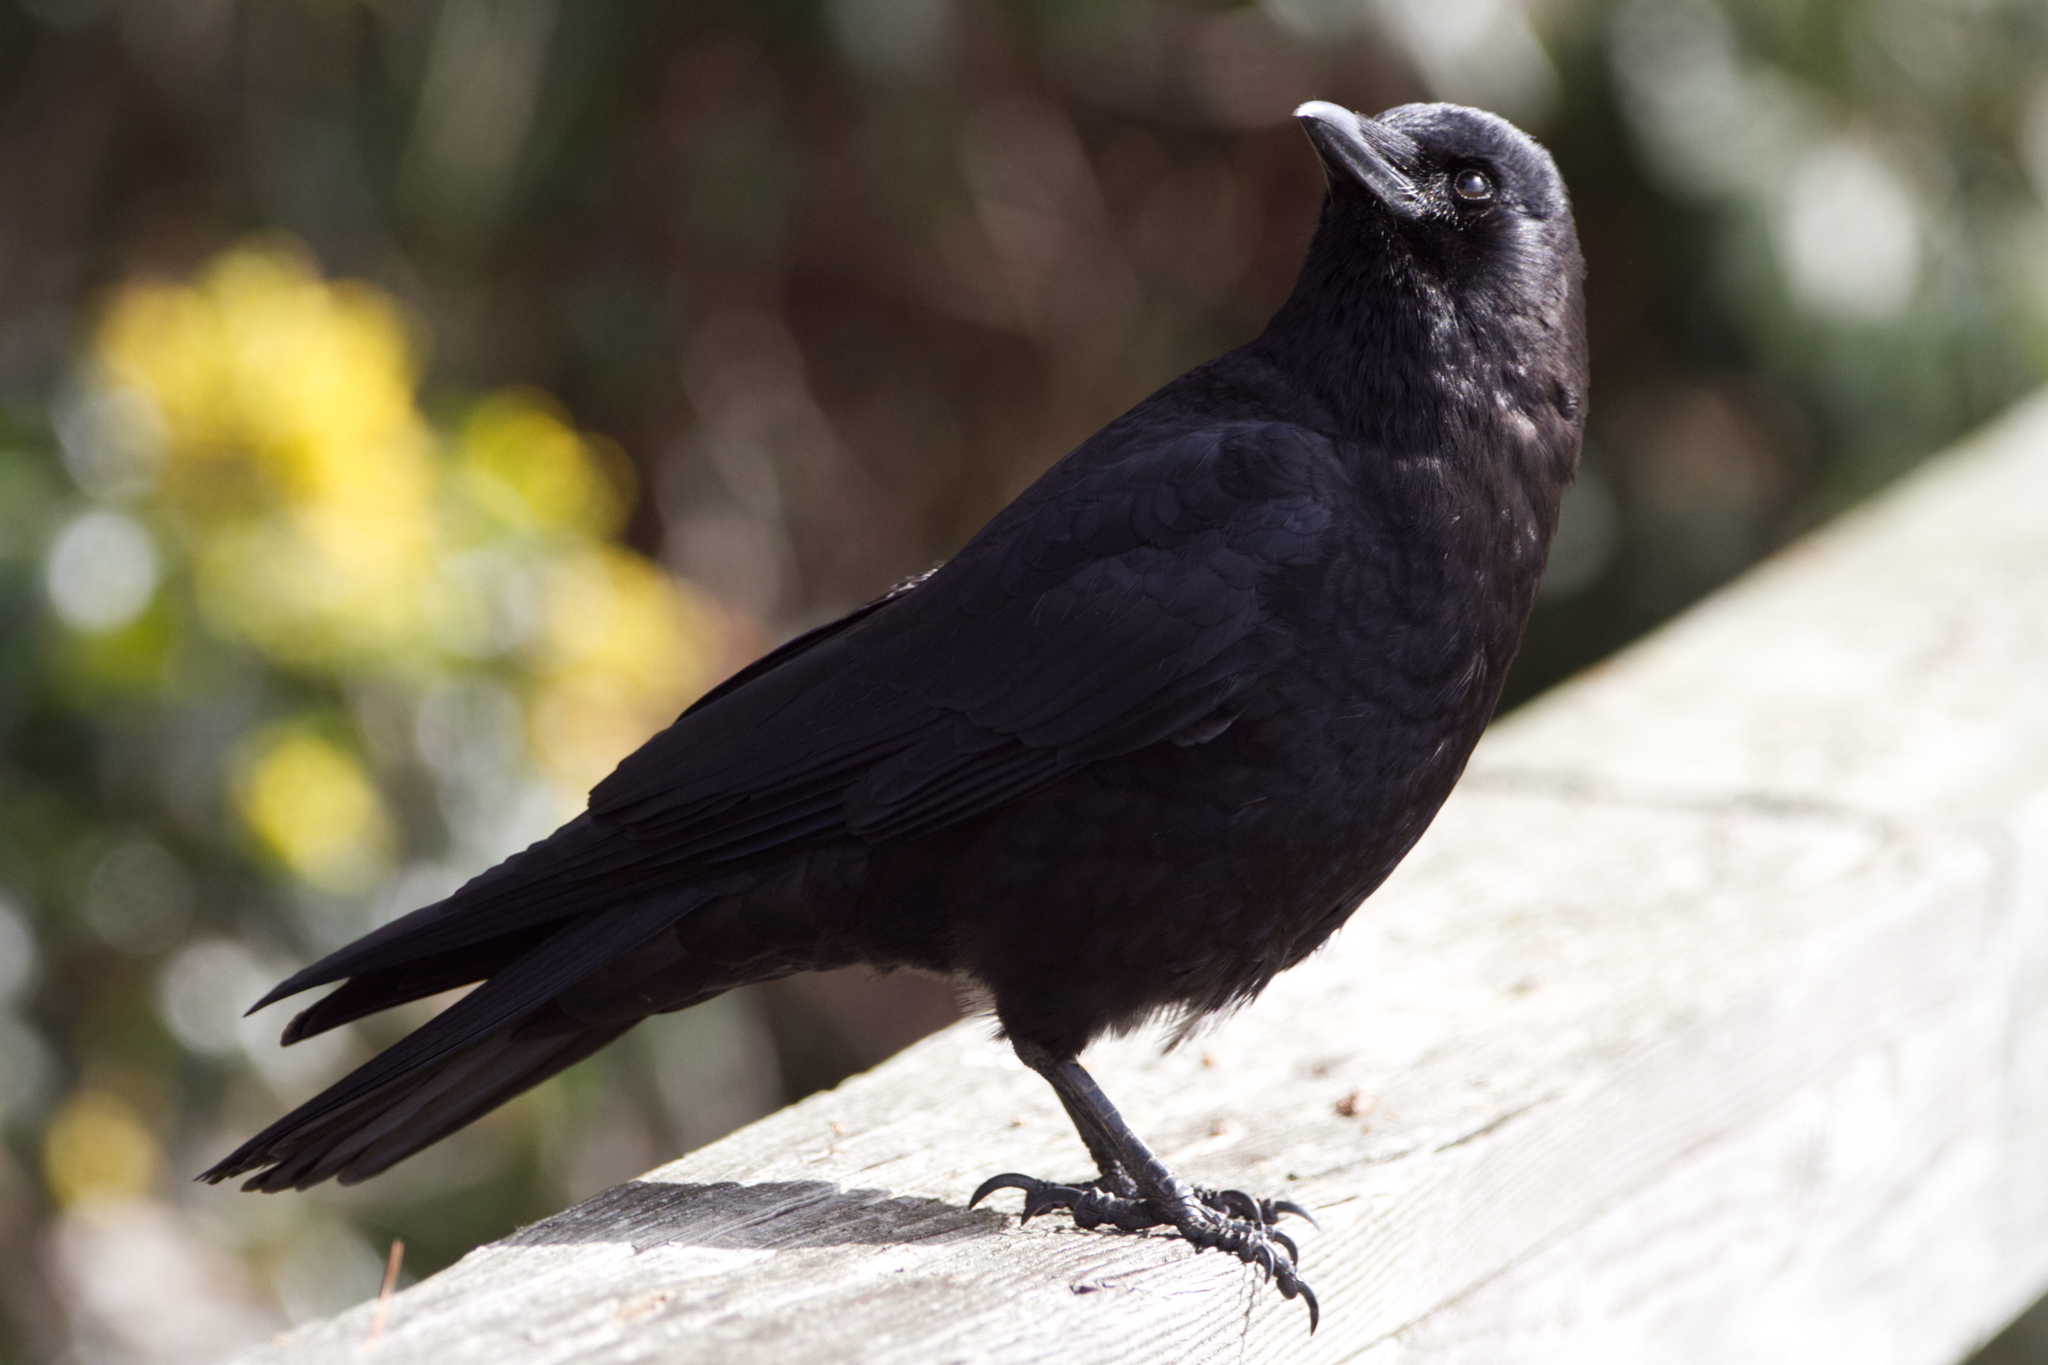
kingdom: Animalia
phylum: Chordata
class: Aves
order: Passeriformes
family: Corvidae
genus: Corvus
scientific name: Corvus brachyrhynchos
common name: American crow
